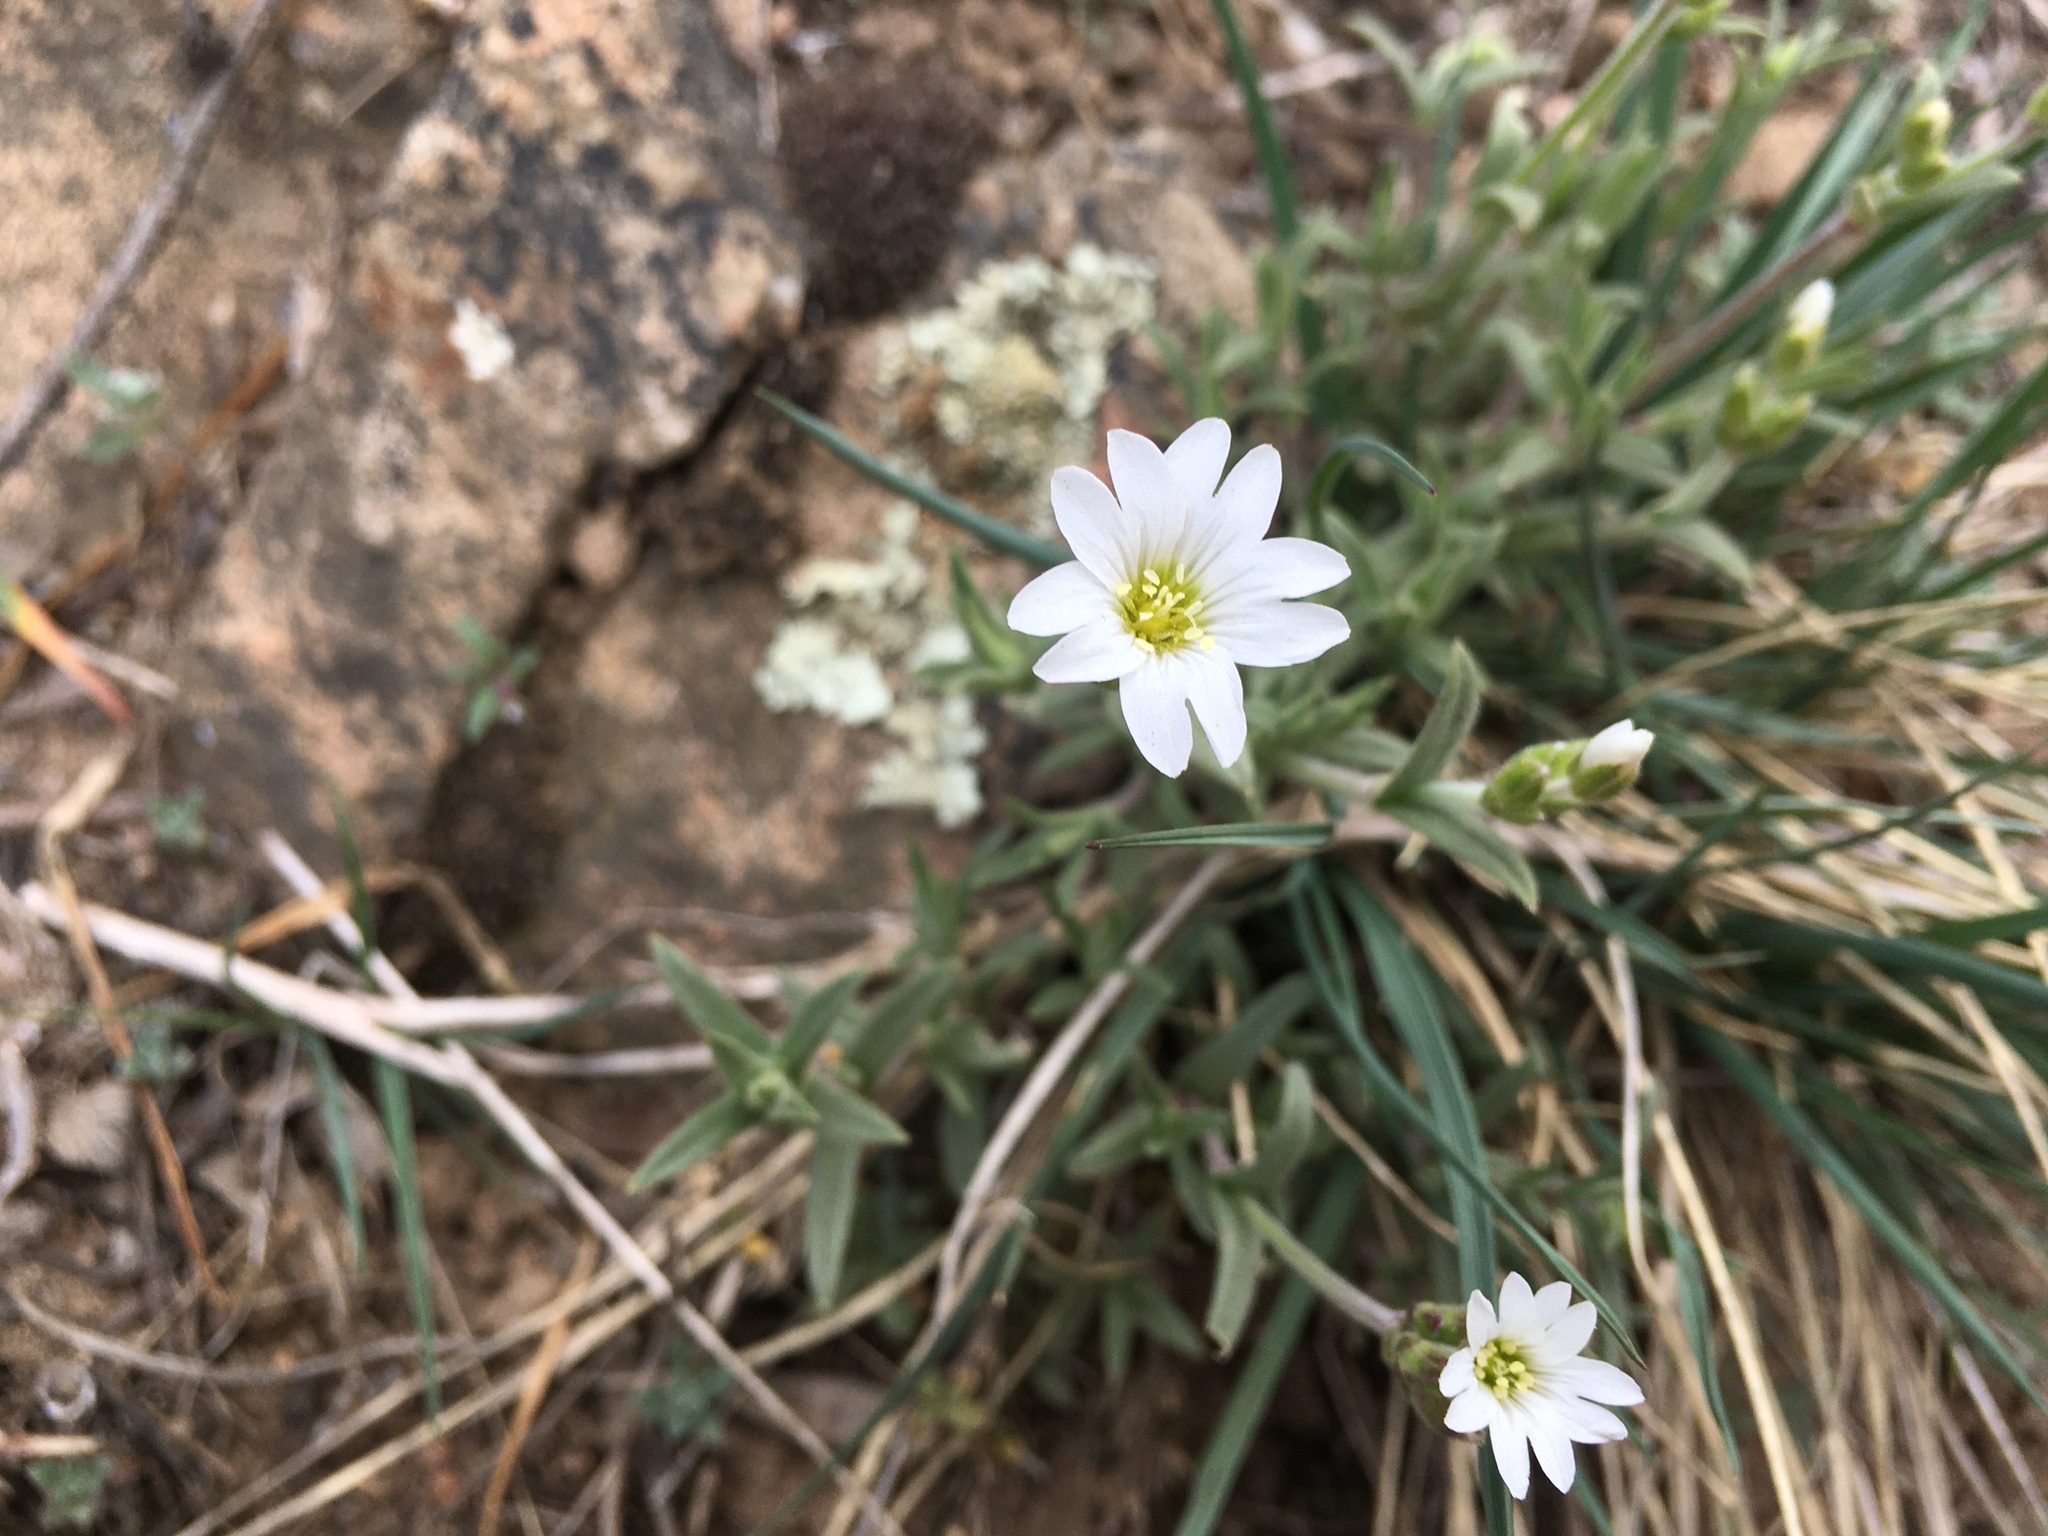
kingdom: Plantae
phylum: Tracheophyta
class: Magnoliopsida
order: Caryophyllales
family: Caryophyllaceae
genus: Cerastium
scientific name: Cerastium arvense
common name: Field mouse-ear
